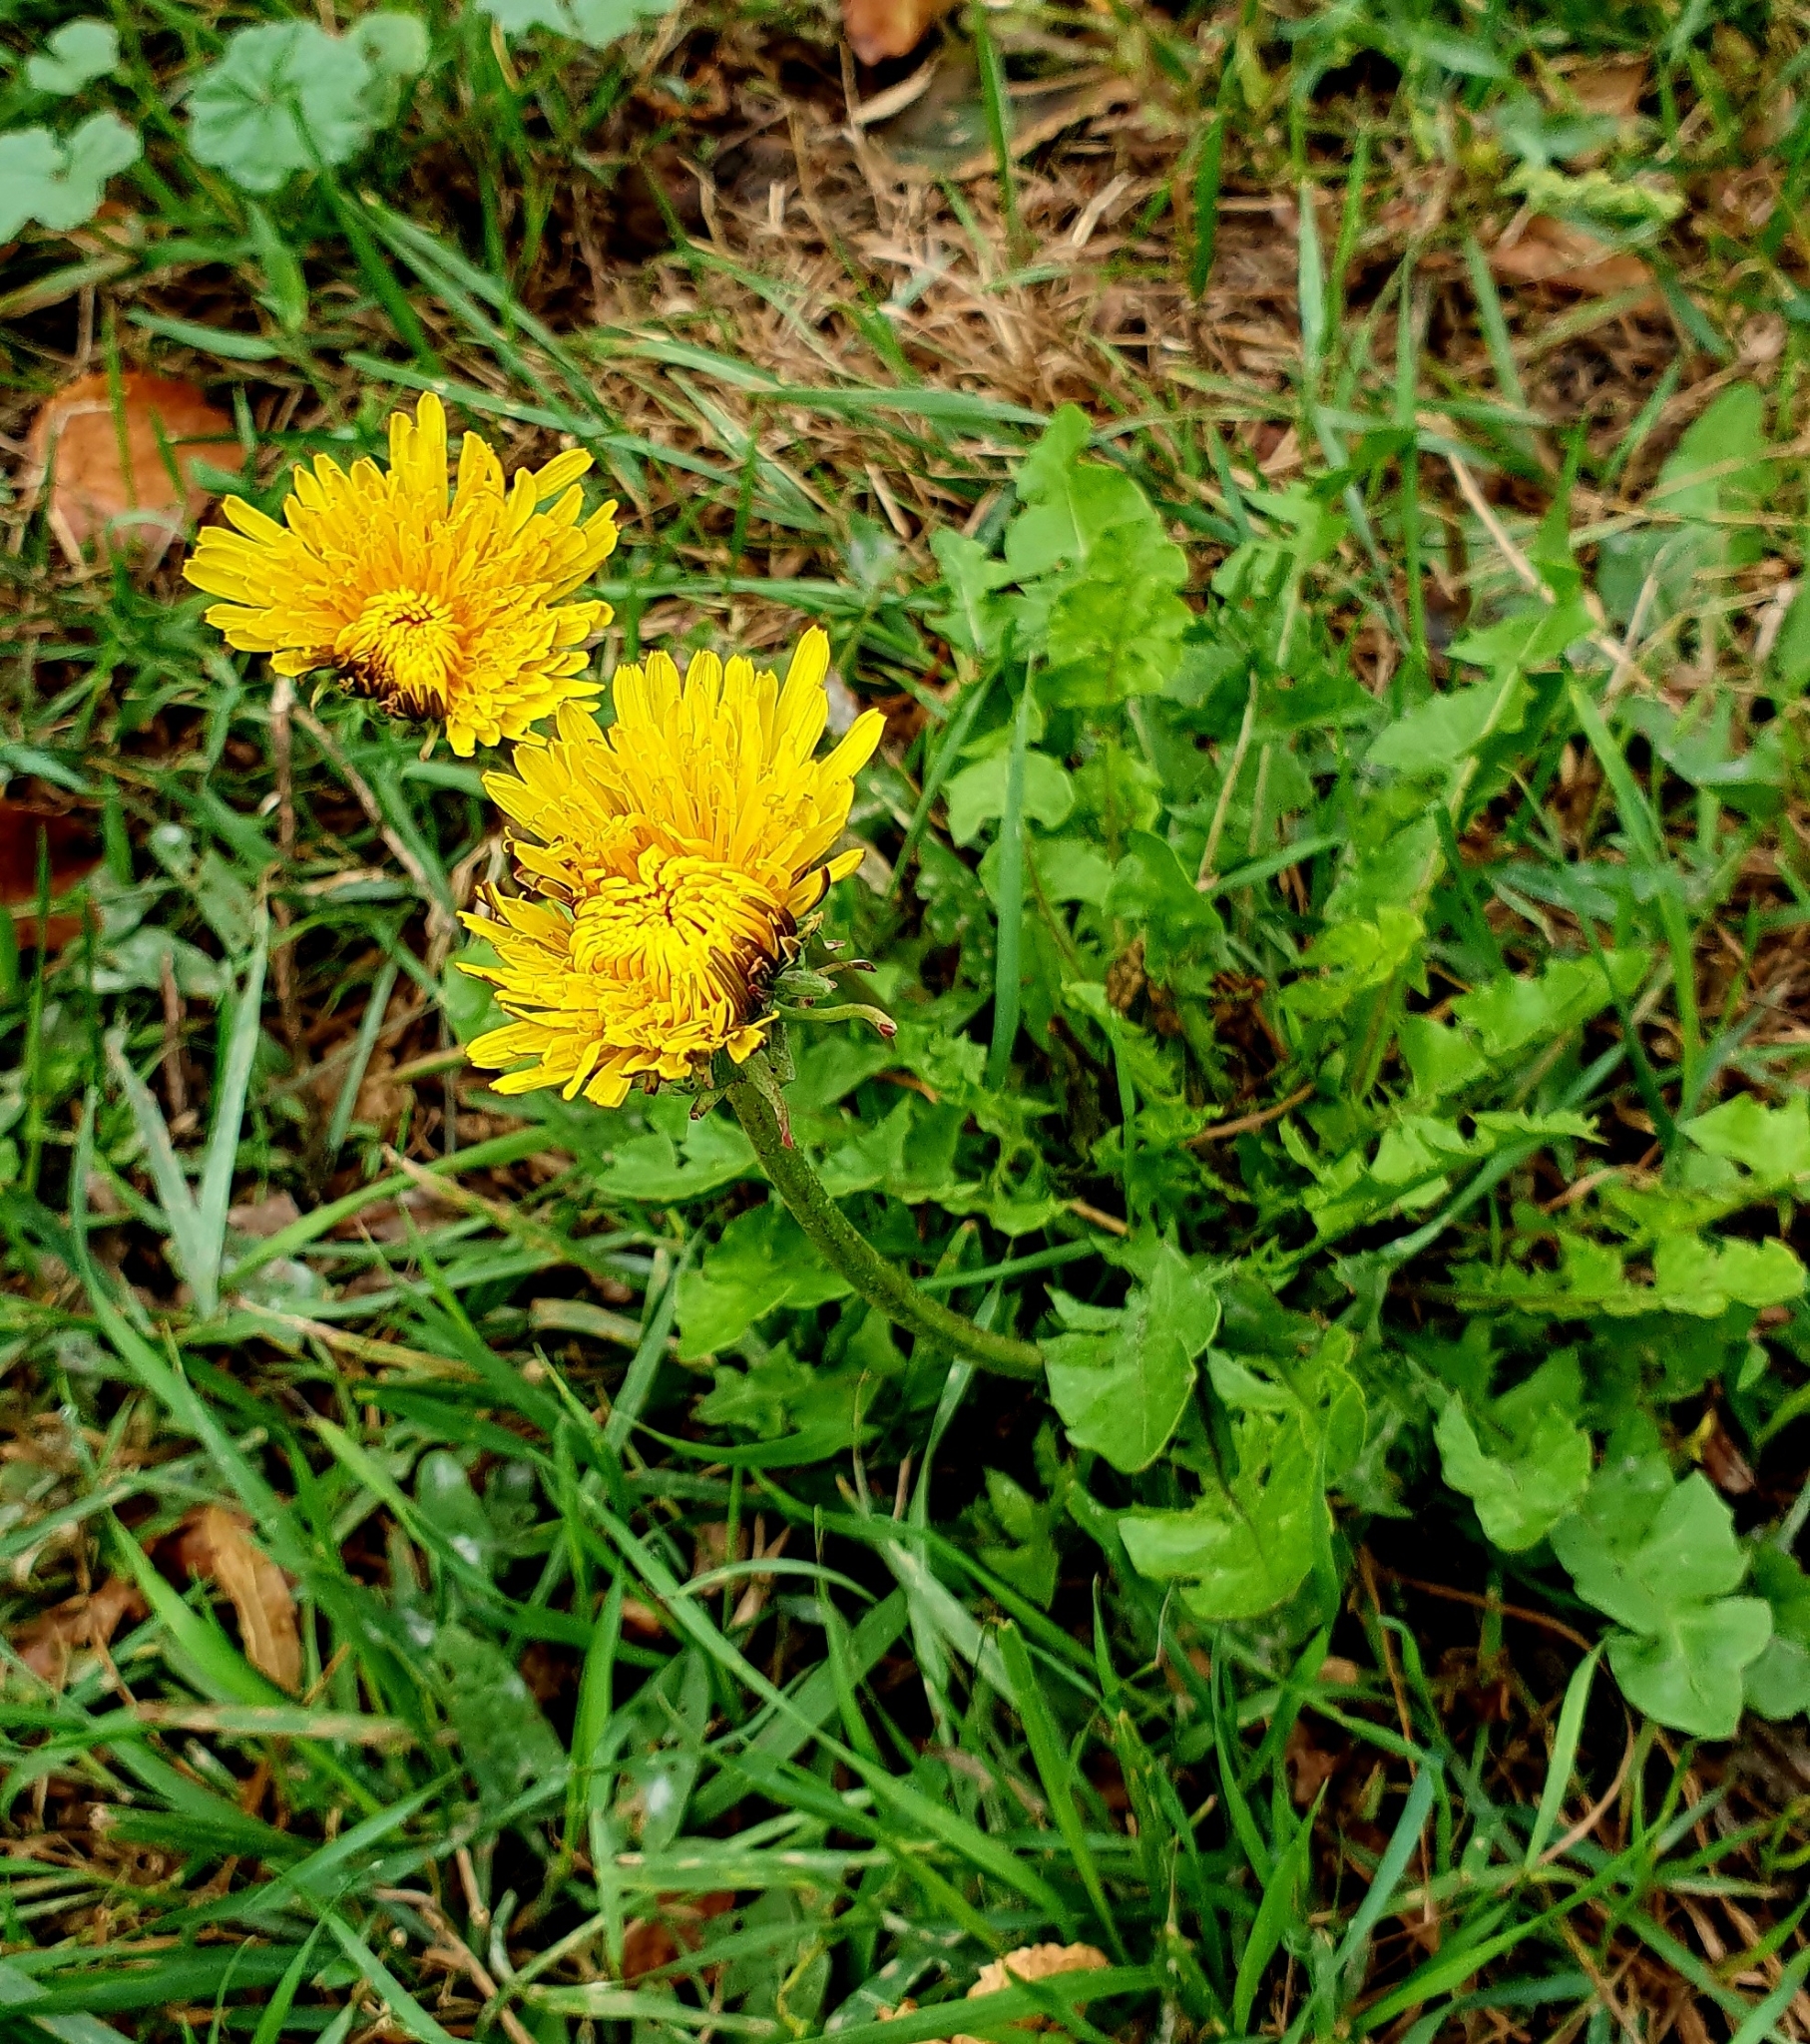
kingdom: Plantae
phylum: Tracheophyta
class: Magnoliopsida
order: Asterales
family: Asteraceae
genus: Taraxacum
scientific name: Taraxacum officinale
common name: Common dandelion
